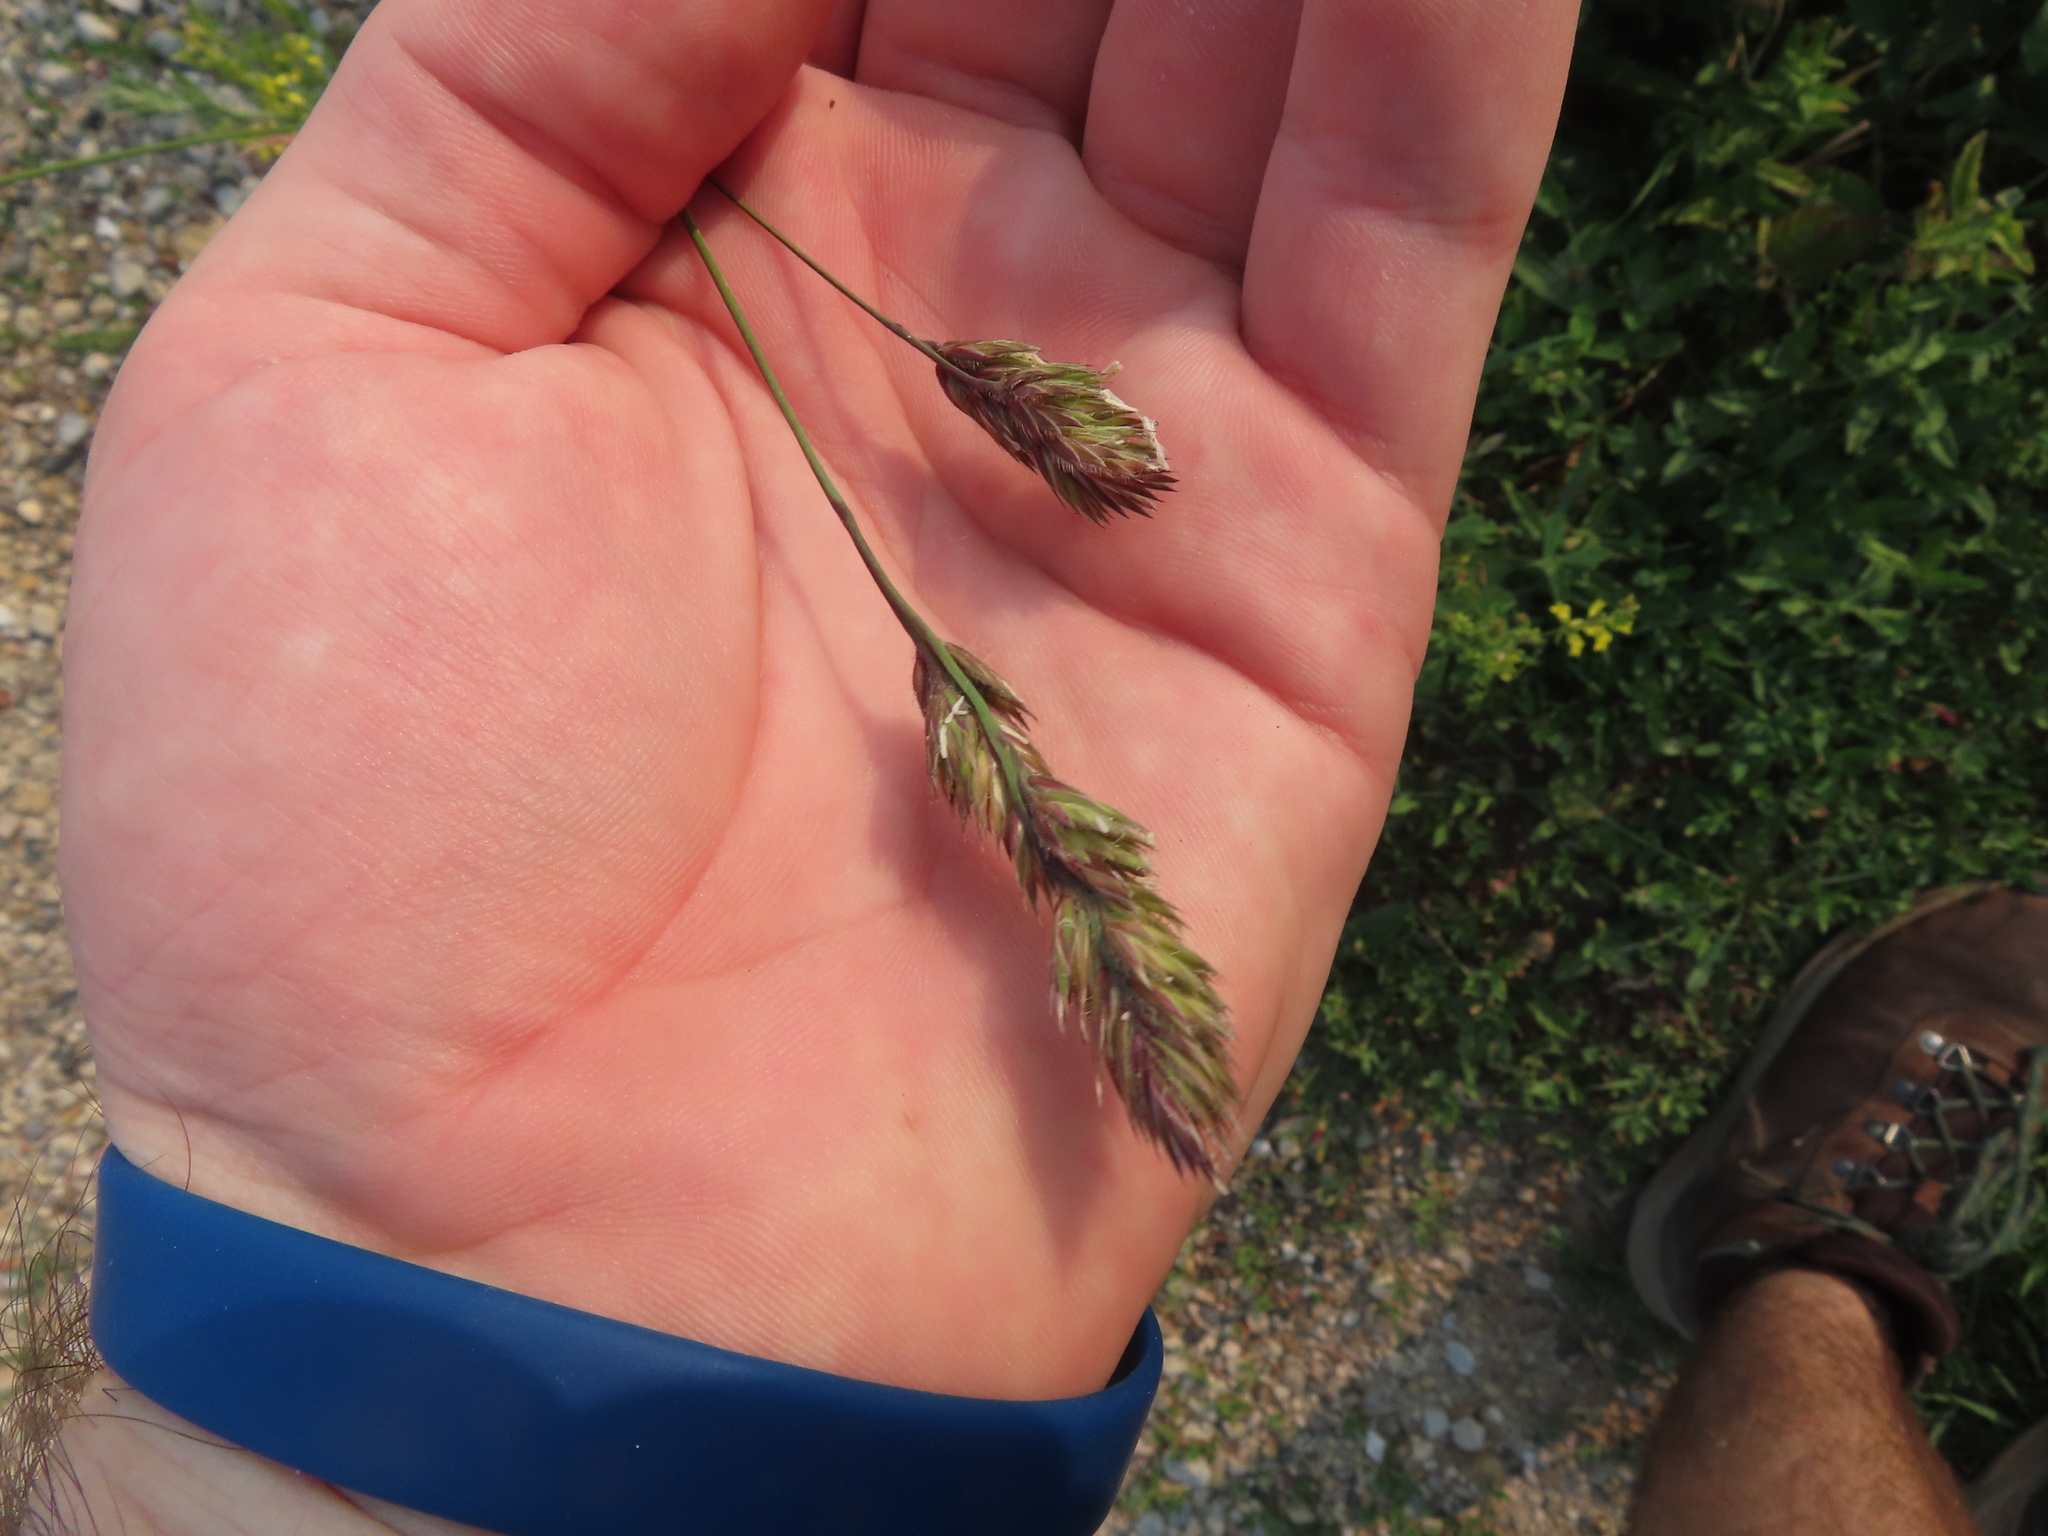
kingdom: Plantae
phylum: Tracheophyta
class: Liliopsida
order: Poales
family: Poaceae
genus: Dactylis
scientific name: Dactylis glomerata
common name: Orchardgrass
